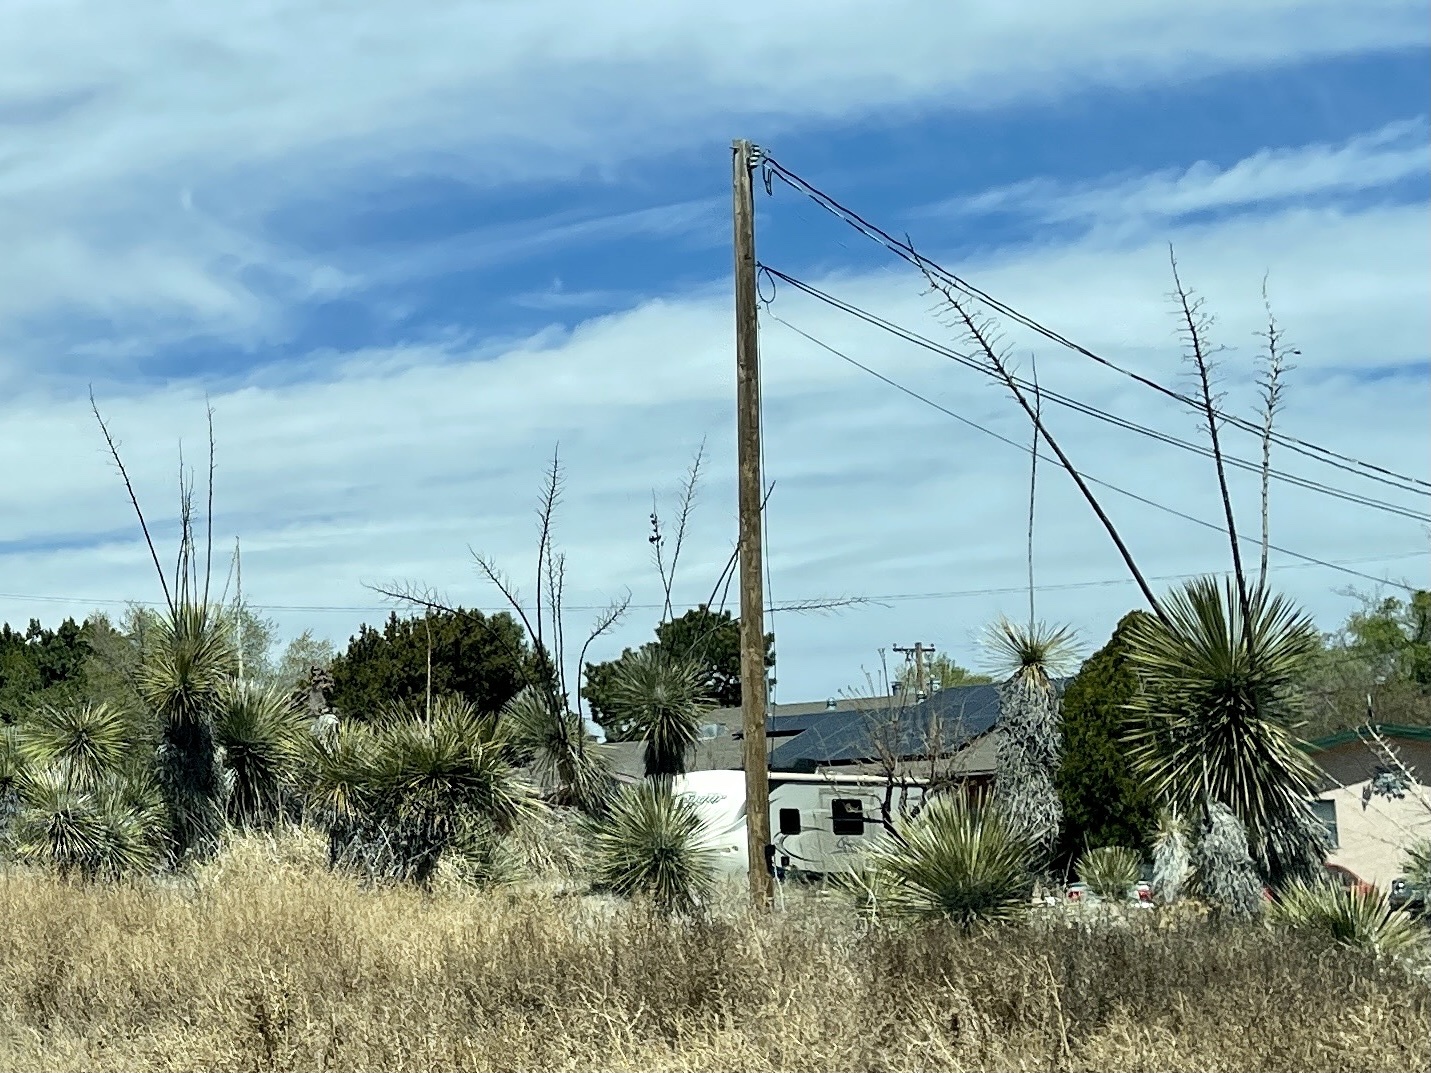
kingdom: Plantae
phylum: Tracheophyta
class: Liliopsida
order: Asparagales
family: Asparagaceae
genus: Yucca
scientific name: Yucca elata
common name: Palmella
